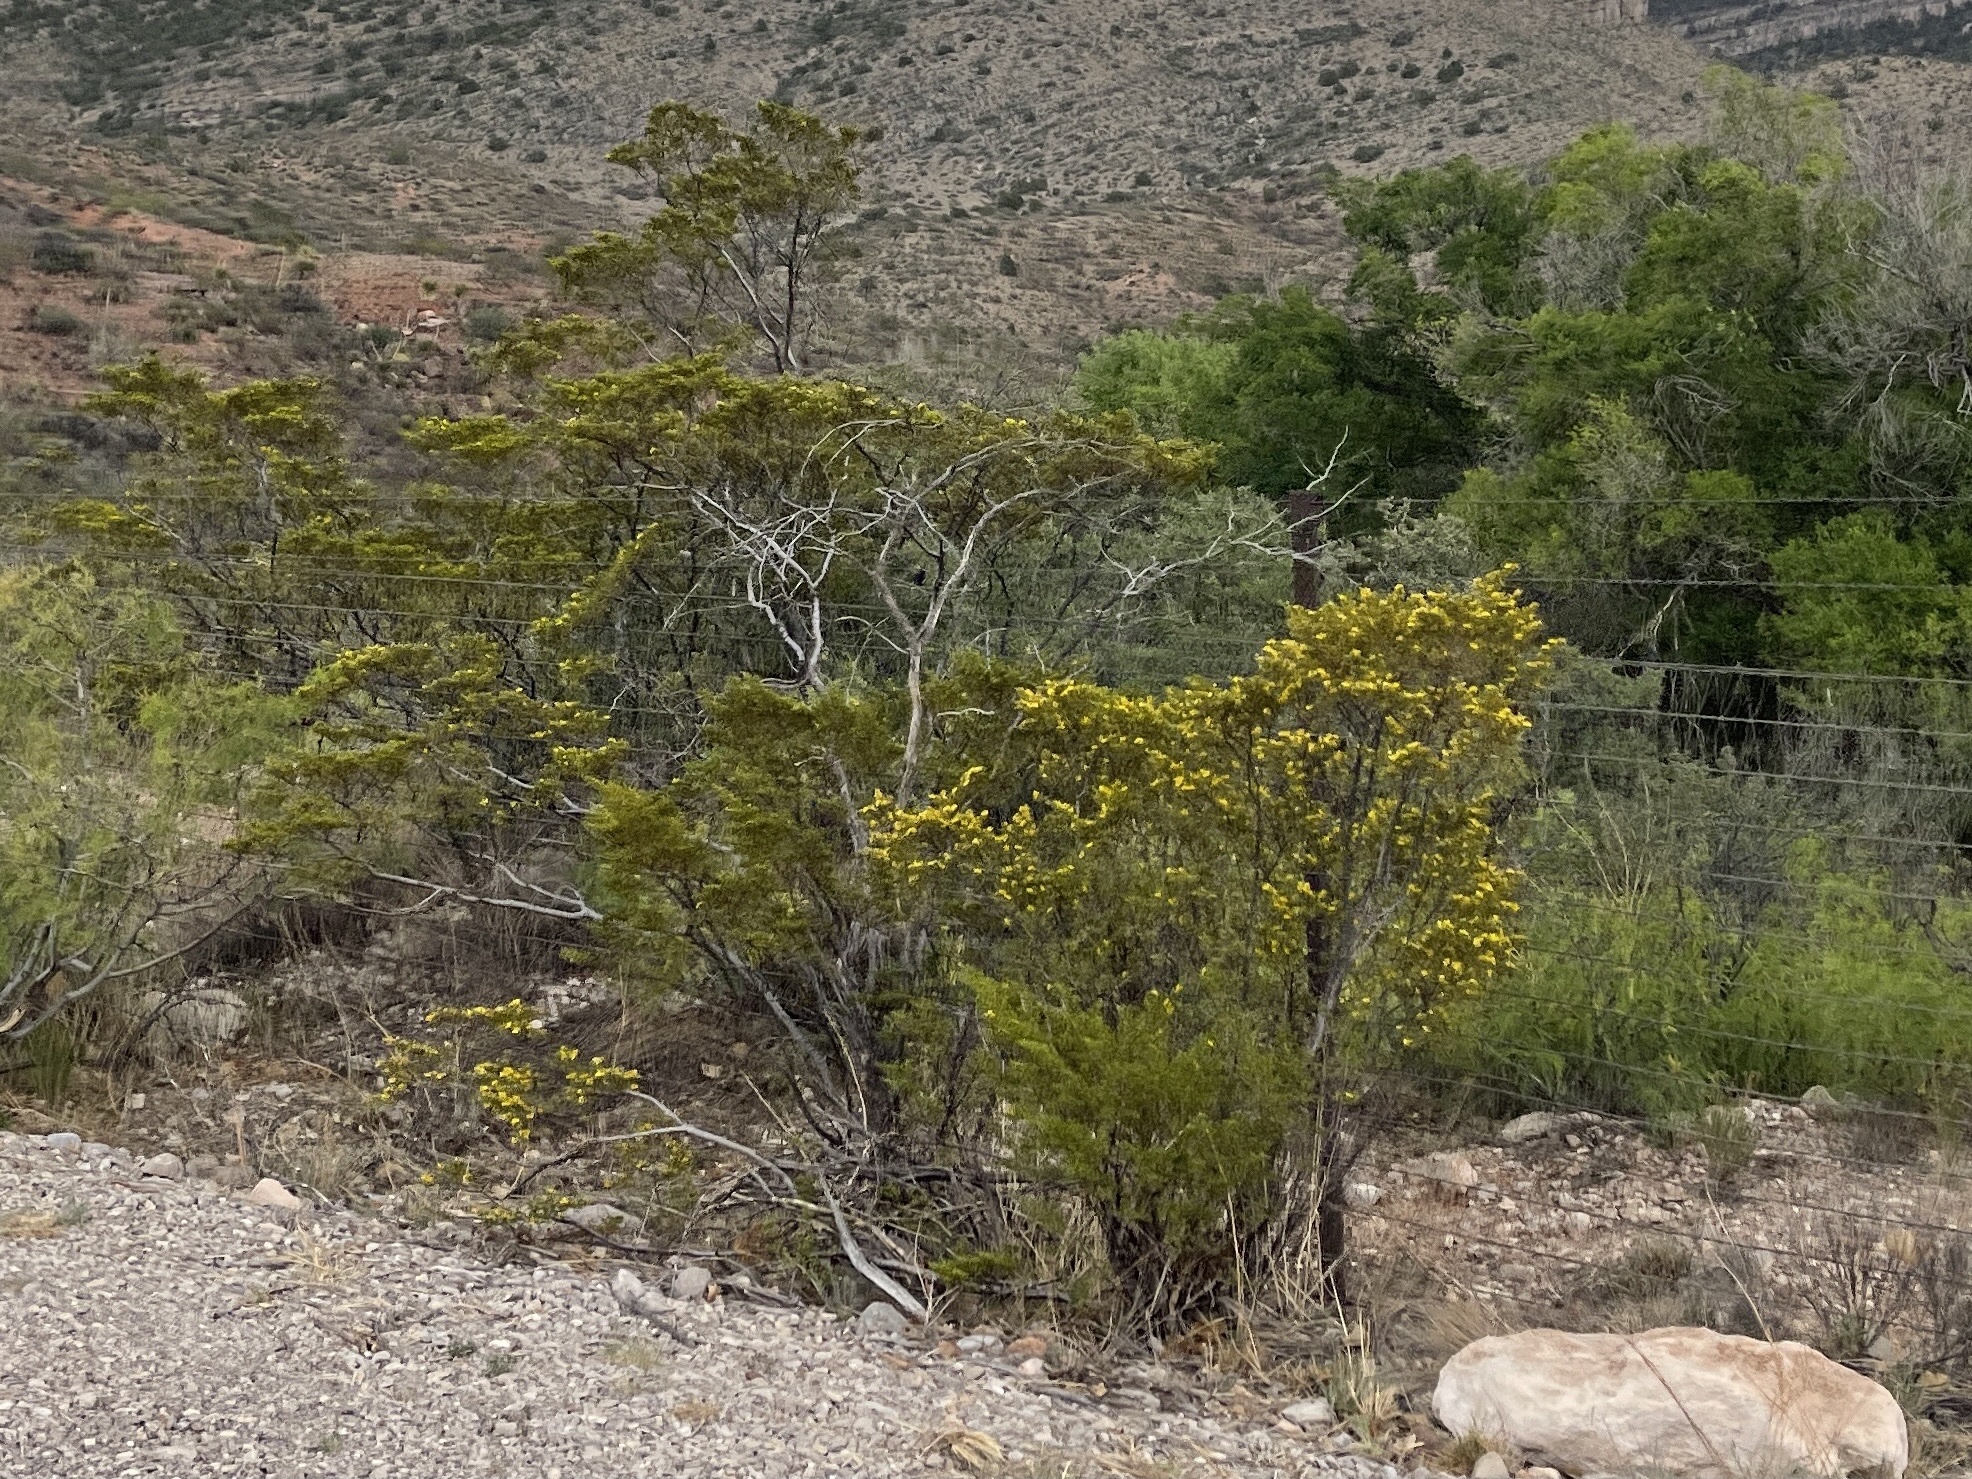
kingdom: Plantae
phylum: Tracheophyta
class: Magnoliopsida
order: Zygophyllales
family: Zygophyllaceae
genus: Larrea
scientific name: Larrea tridentata
